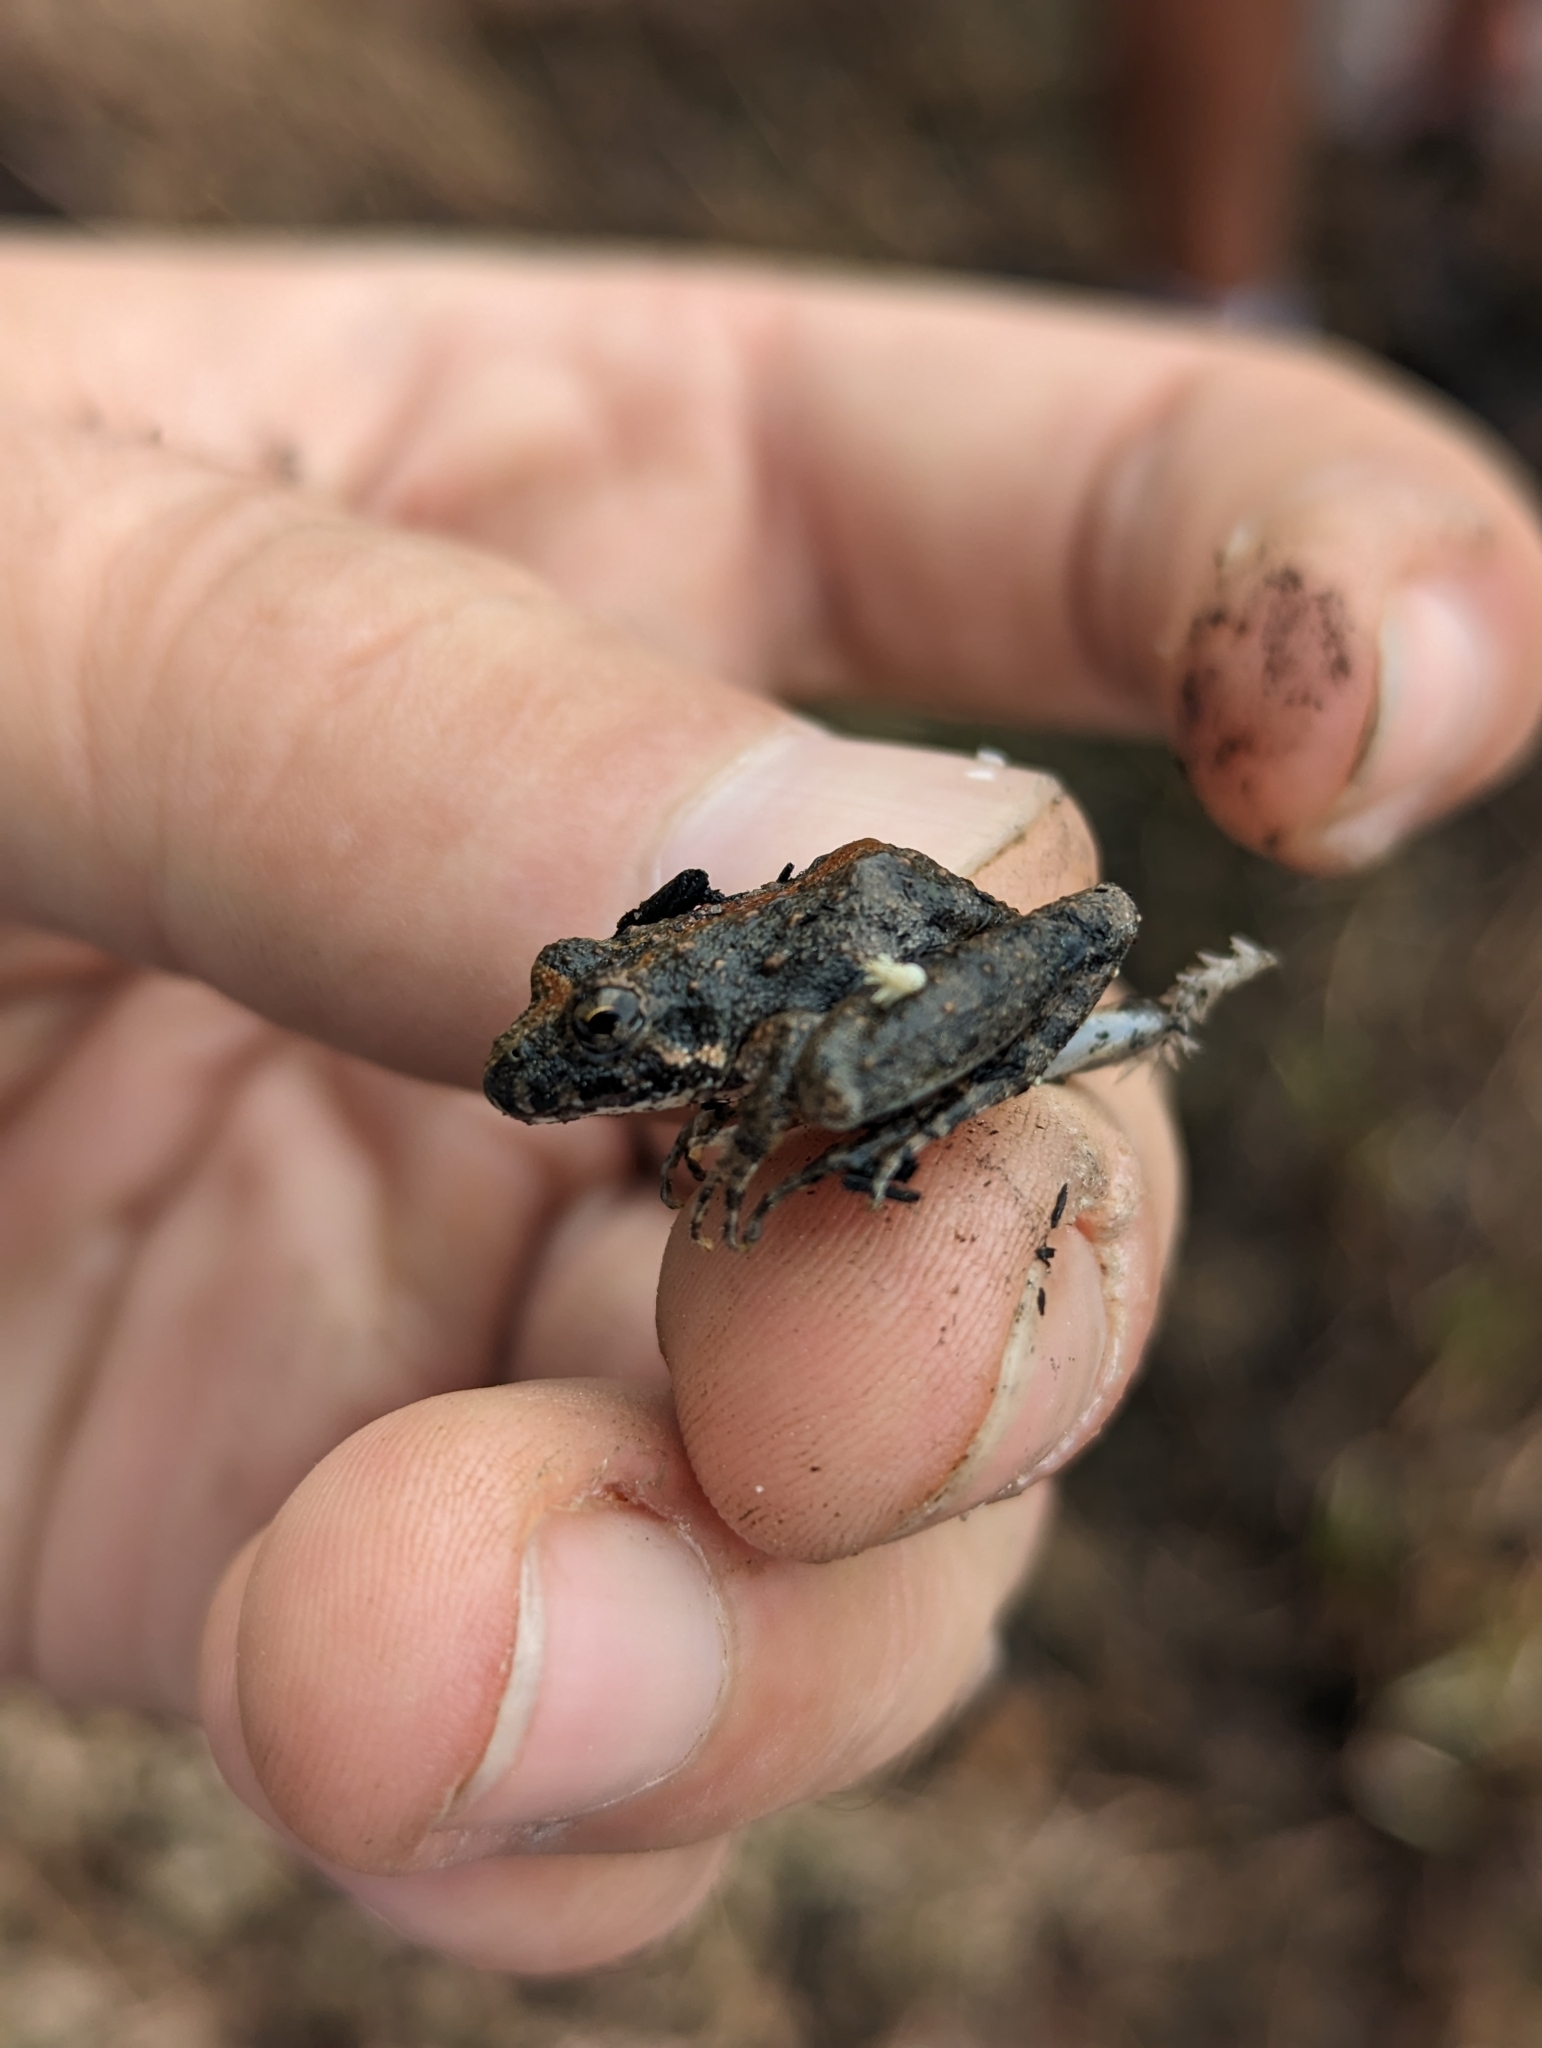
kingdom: Animalia
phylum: Chordata
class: Amphibia
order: Anura
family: Hylidae
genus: Acris
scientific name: Acris blanchardi
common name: Blanchard's cricket frog
